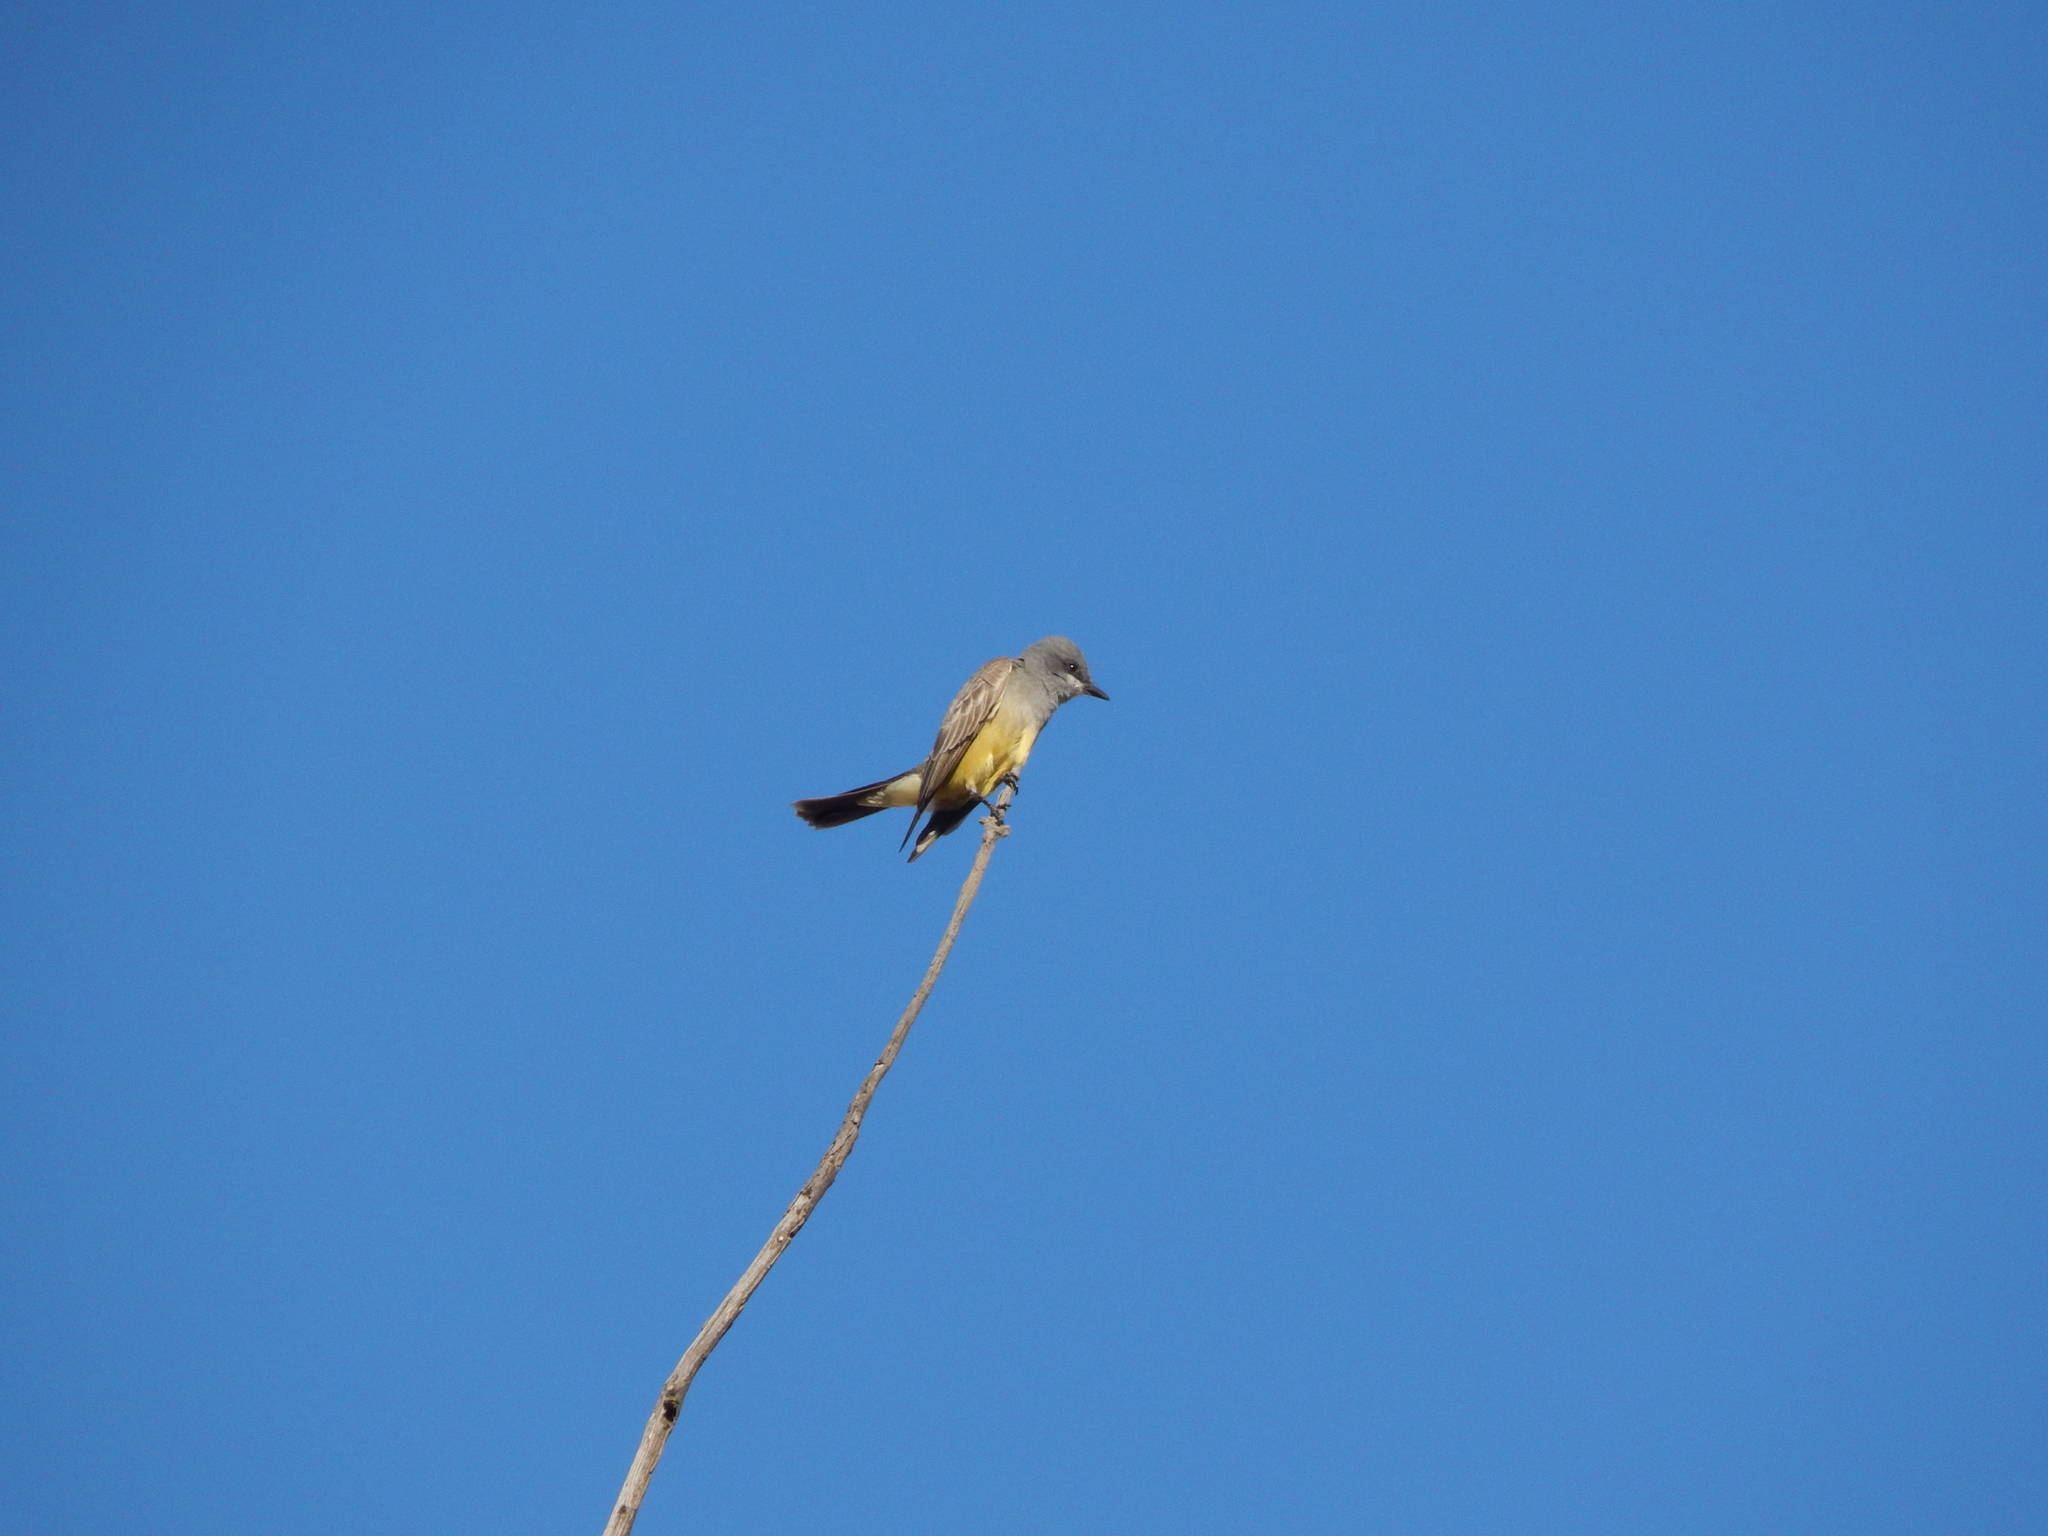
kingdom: Animalia
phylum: Chordata
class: Aves
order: Passeriformes
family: Tyrannidae
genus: Tyrannus
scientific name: Tyrannus vociferans
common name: Cassin's kingbird
